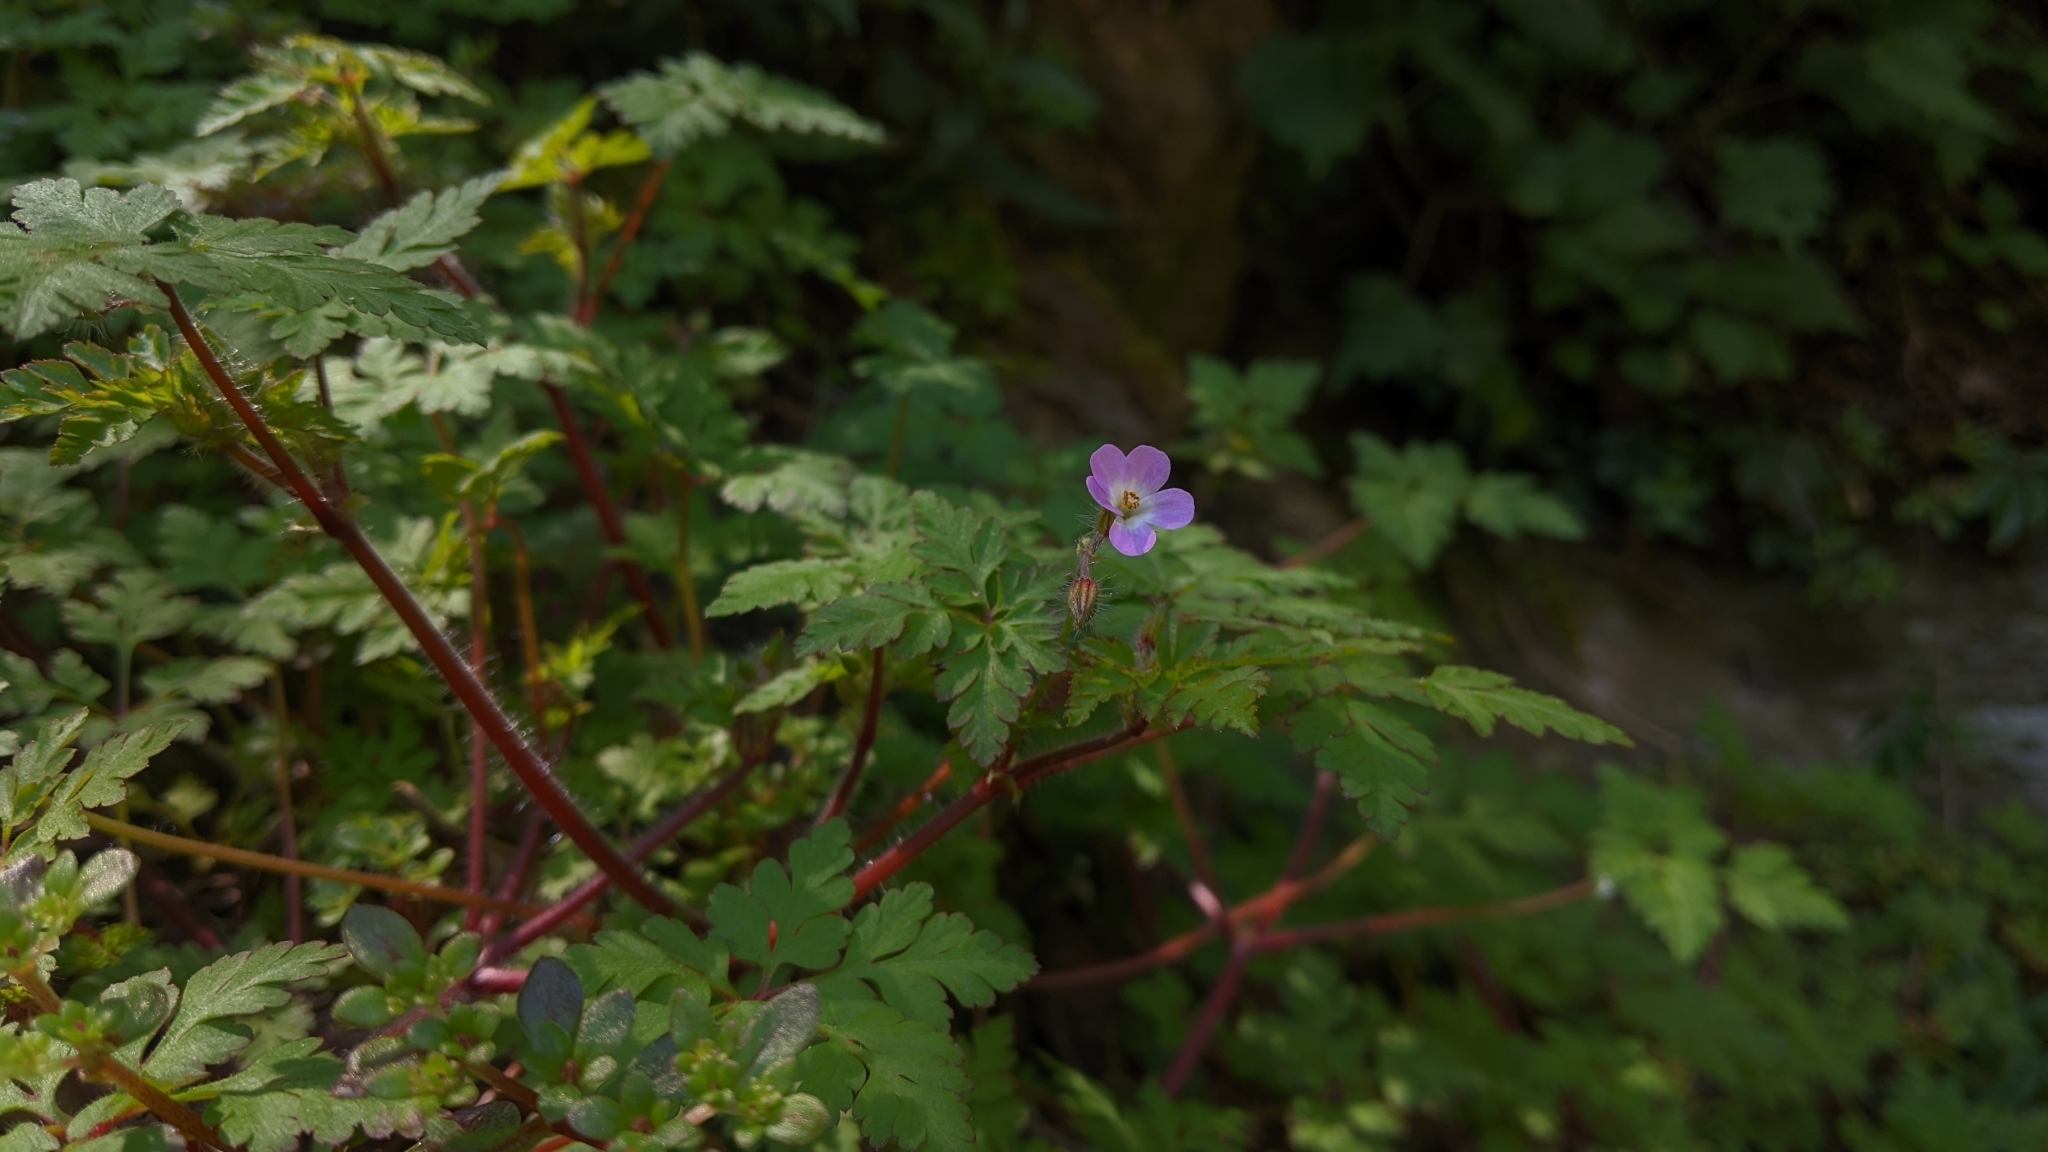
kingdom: Plantae
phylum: Tracheophyta
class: Magnoliopsida
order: Geraniales
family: Geraniaceae
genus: Geranium
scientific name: Geranium robertianum
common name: Herb-robert
